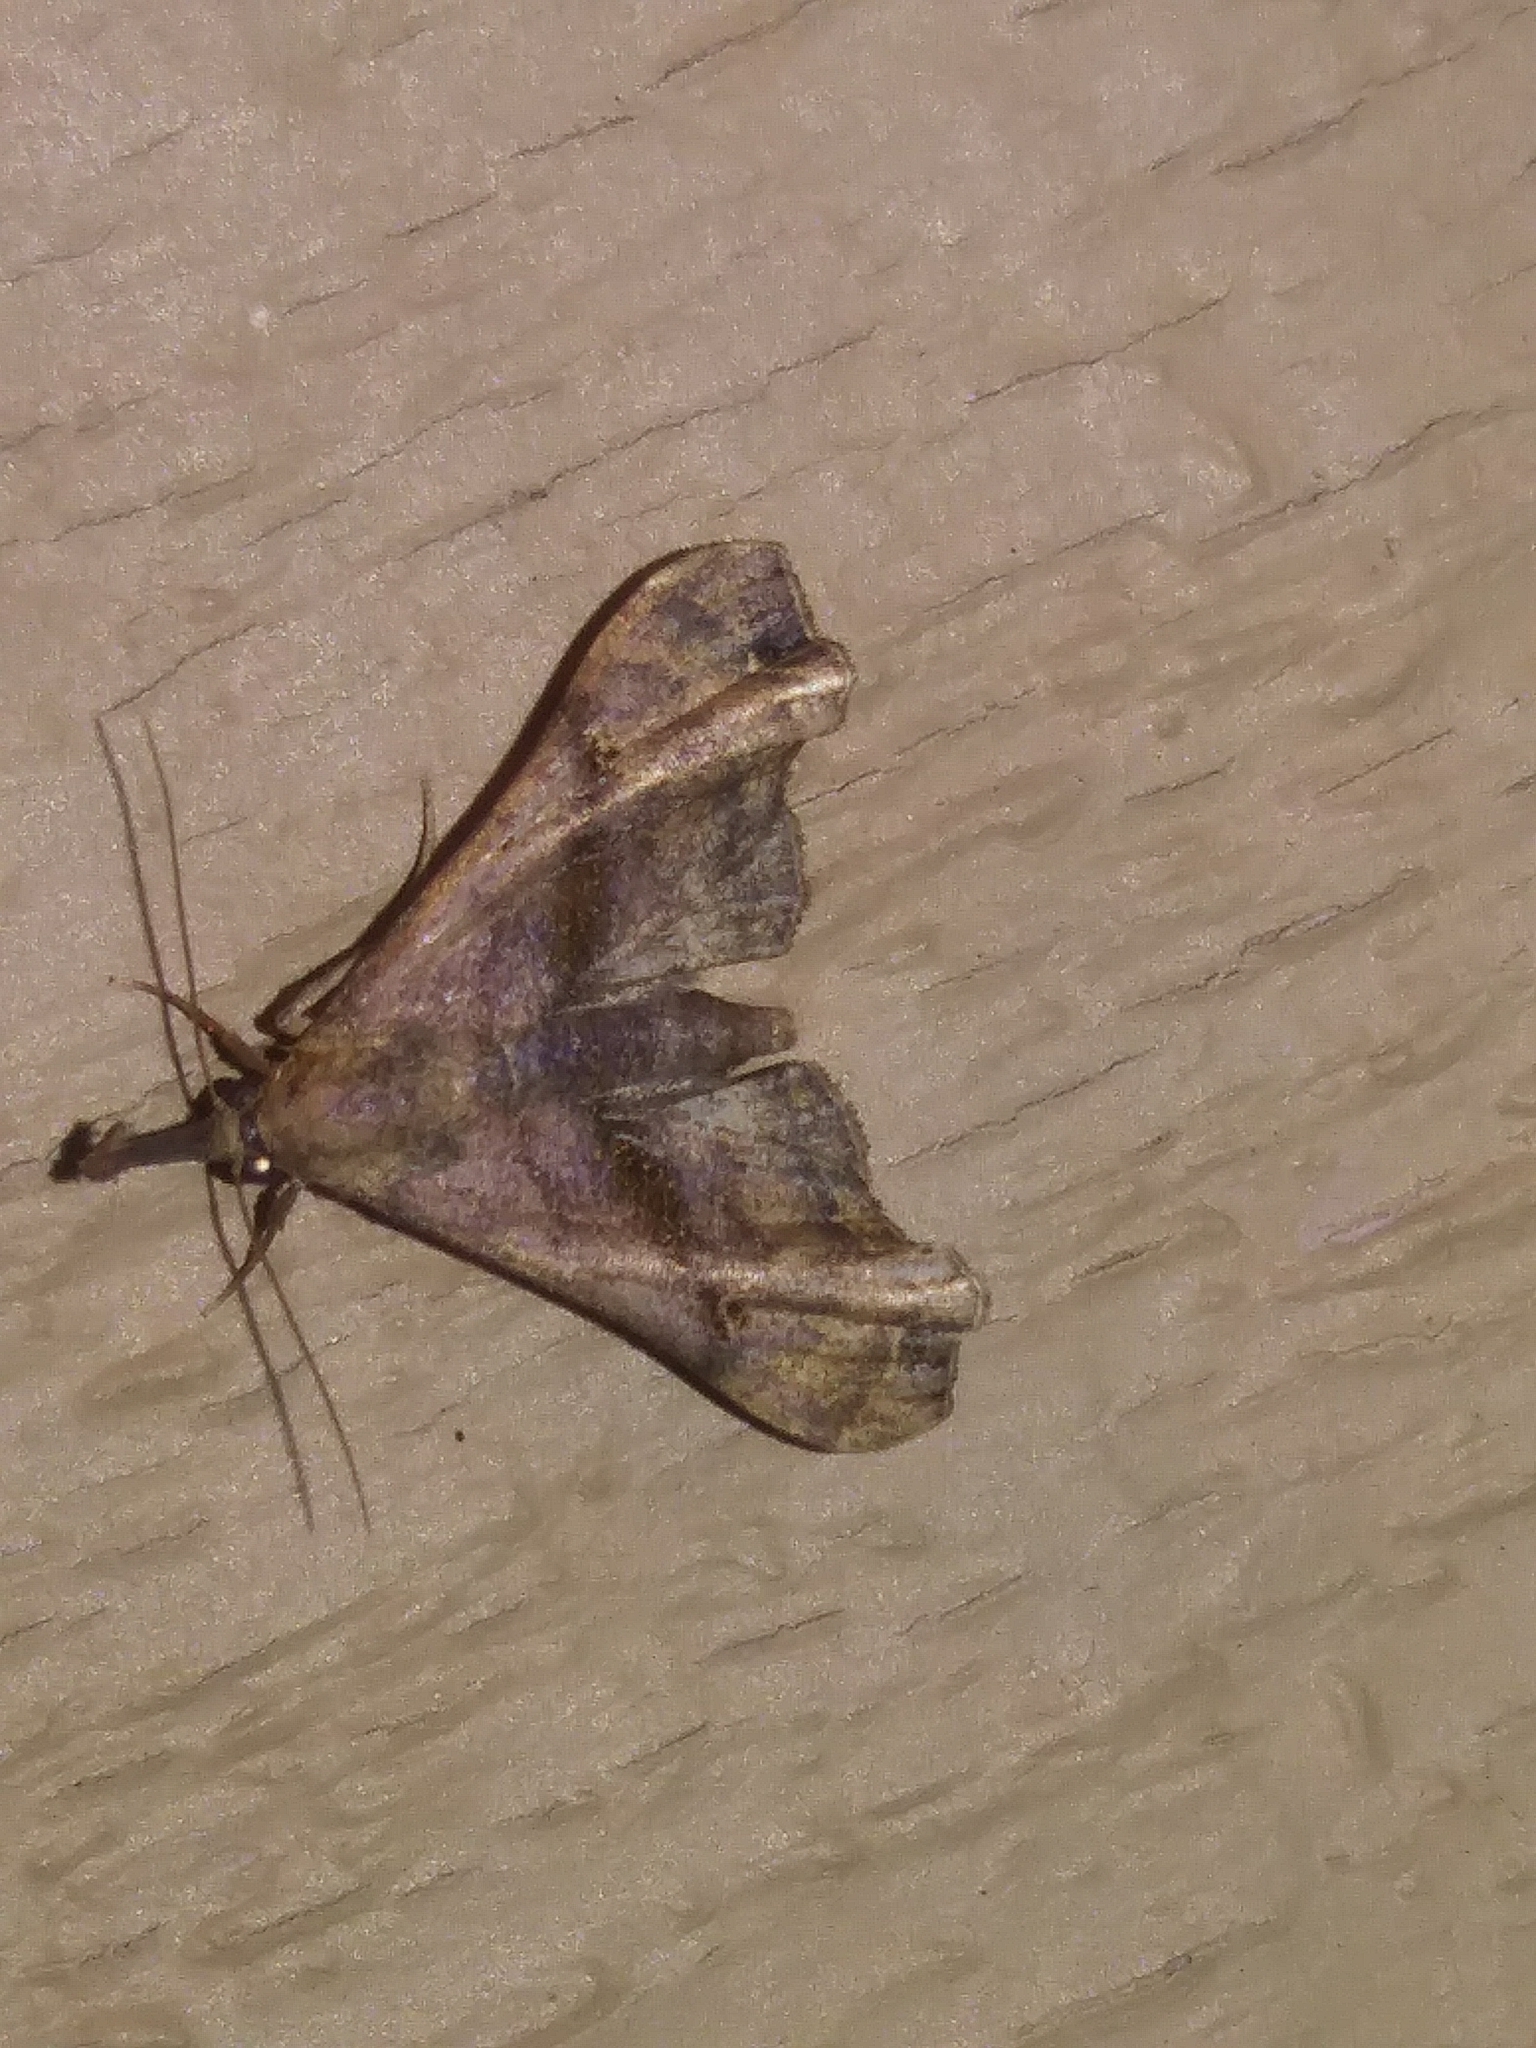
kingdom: Animalia
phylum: Arthropoda
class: Insecta
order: Lepidoptera
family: Erebidae
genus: Palthis
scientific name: Palthis asopialis
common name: Faint-spotted palthis moth
